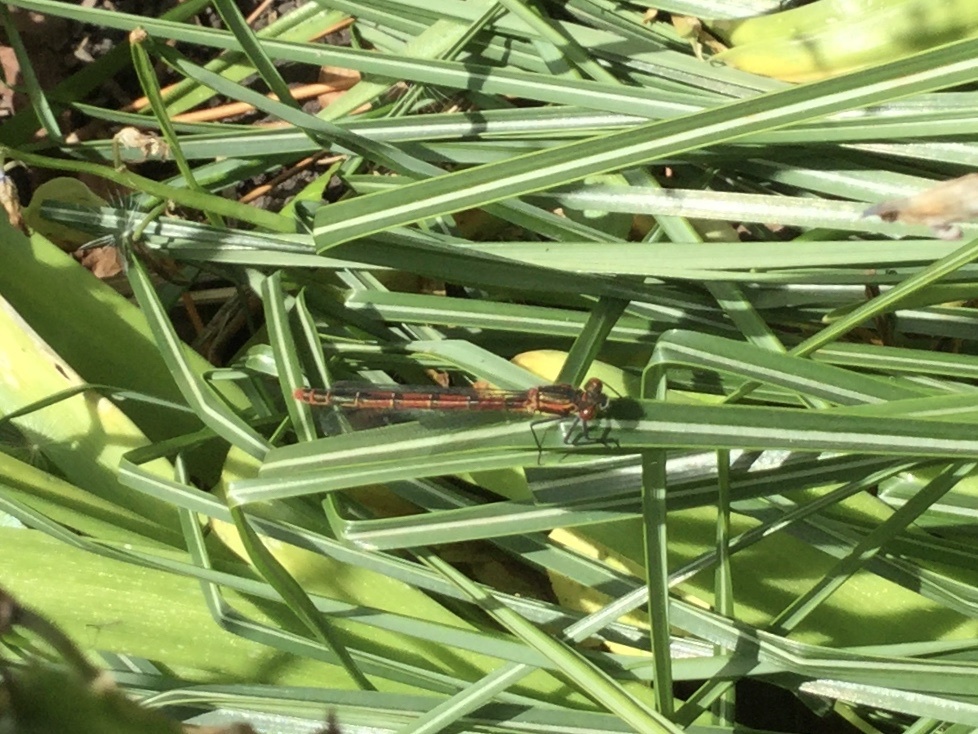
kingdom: Animalia
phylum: Arthropoda
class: Insecta
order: Odonata
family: Coenagrionidae
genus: Pyrrhosoma
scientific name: Pyrrhosoma nymphula
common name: Large red damsel
